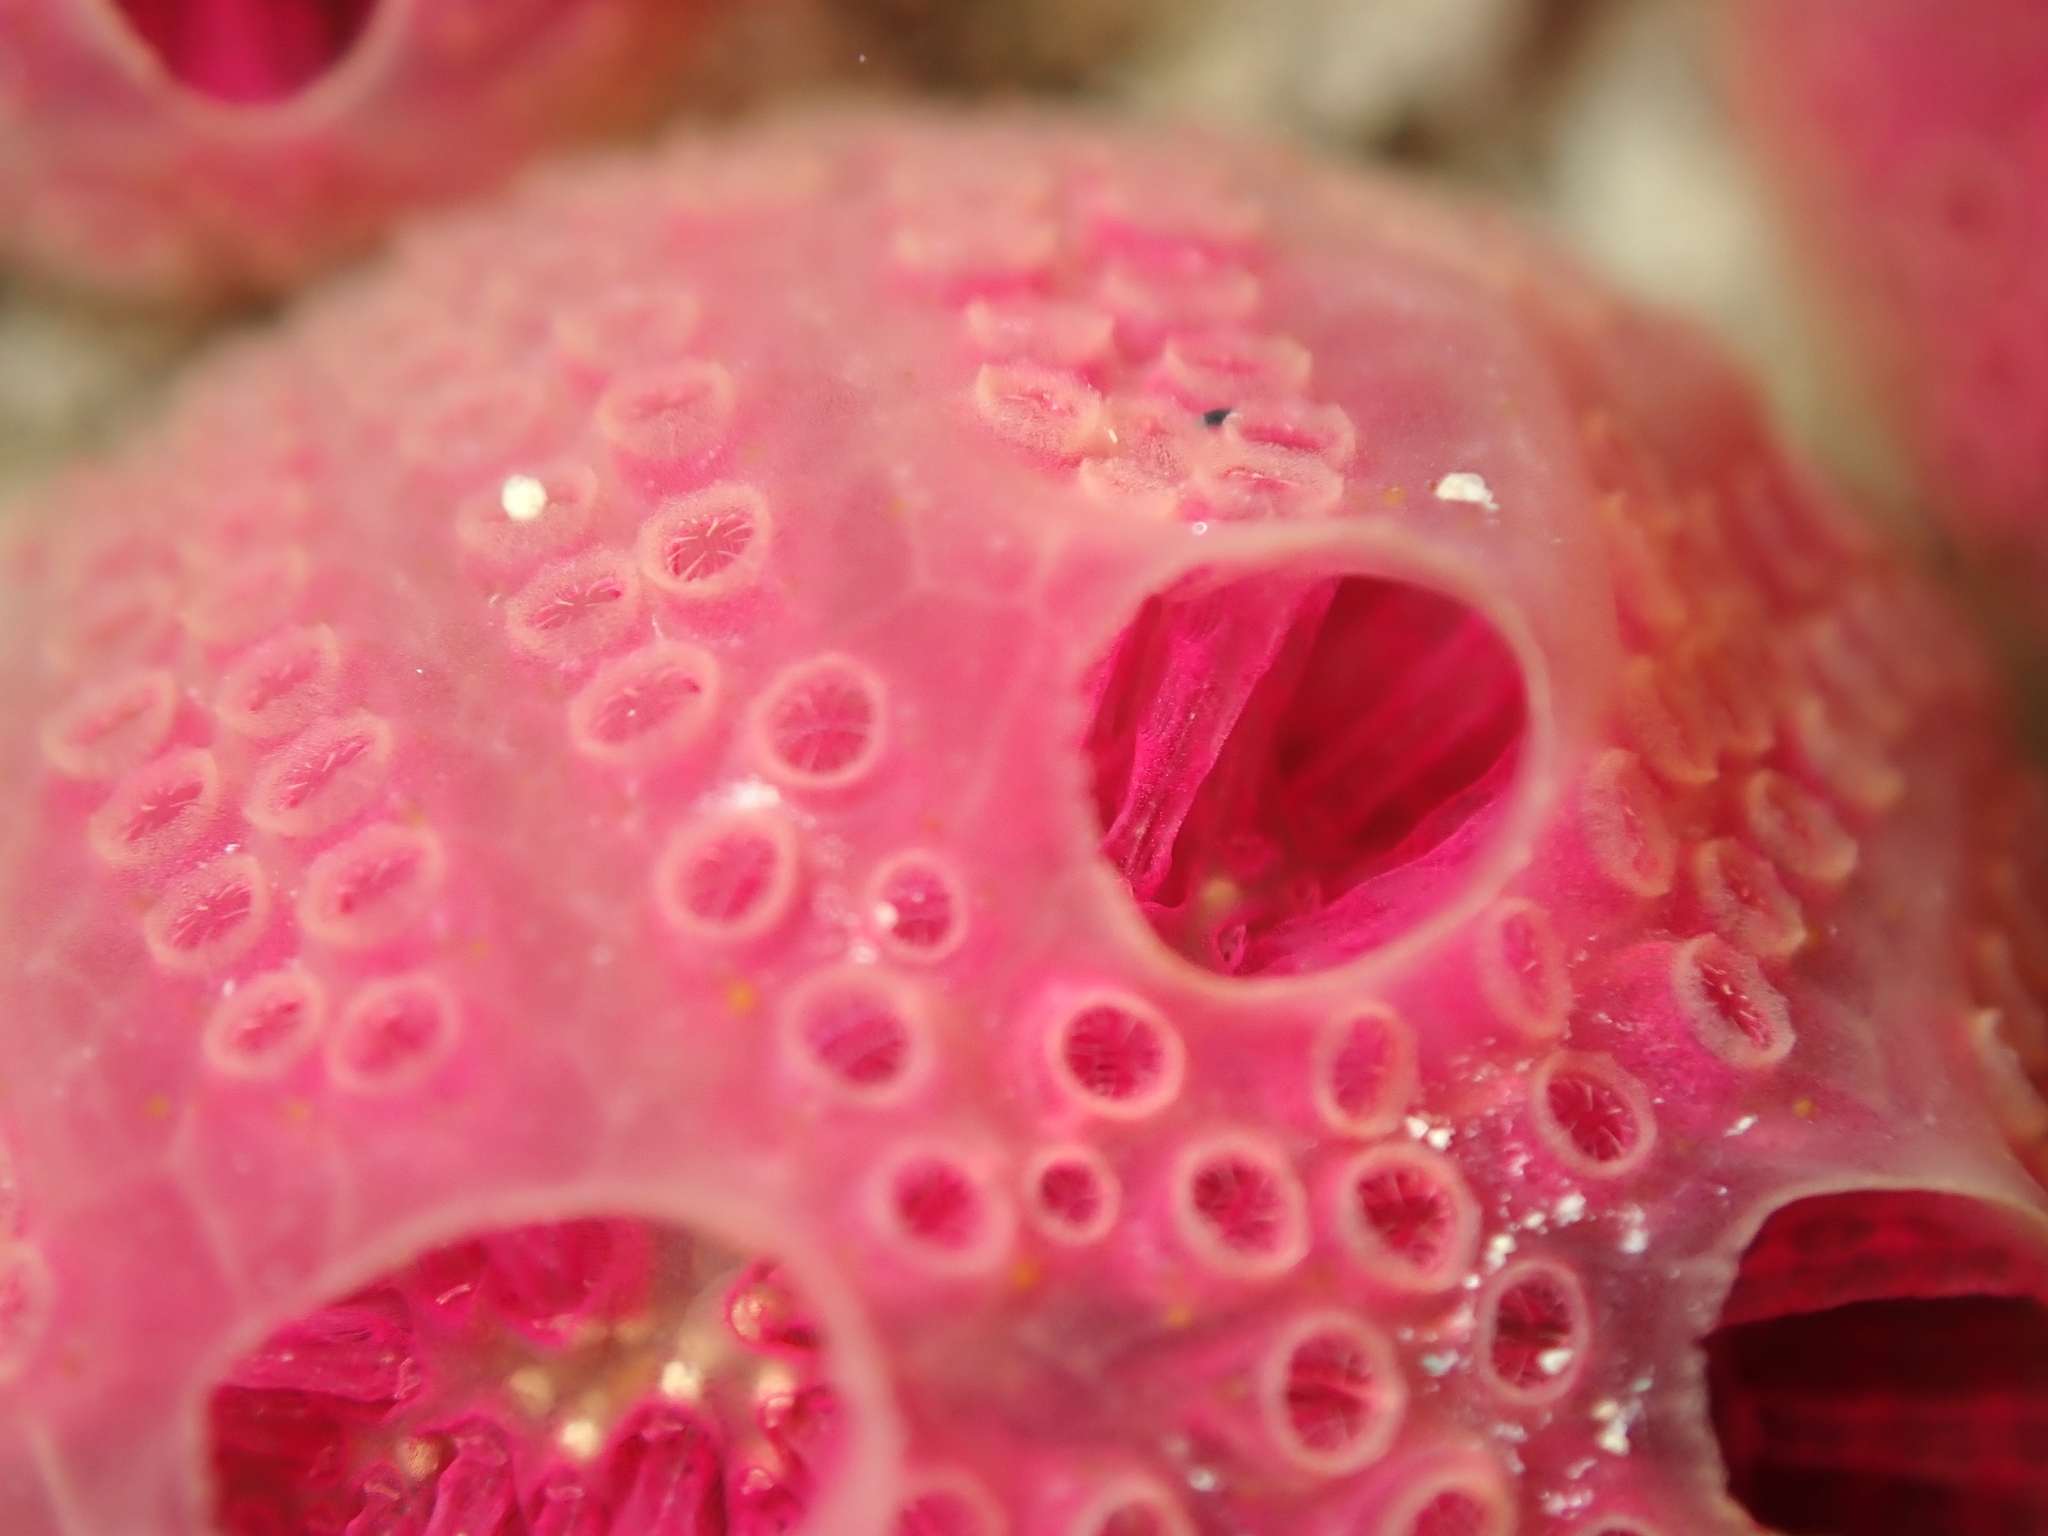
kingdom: Animalia
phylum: Chordata
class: Ascidiacea
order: Aplousobranchia
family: Holozoidae
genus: Hypsistozoa
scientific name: Hypsistozoa fasmeriana
